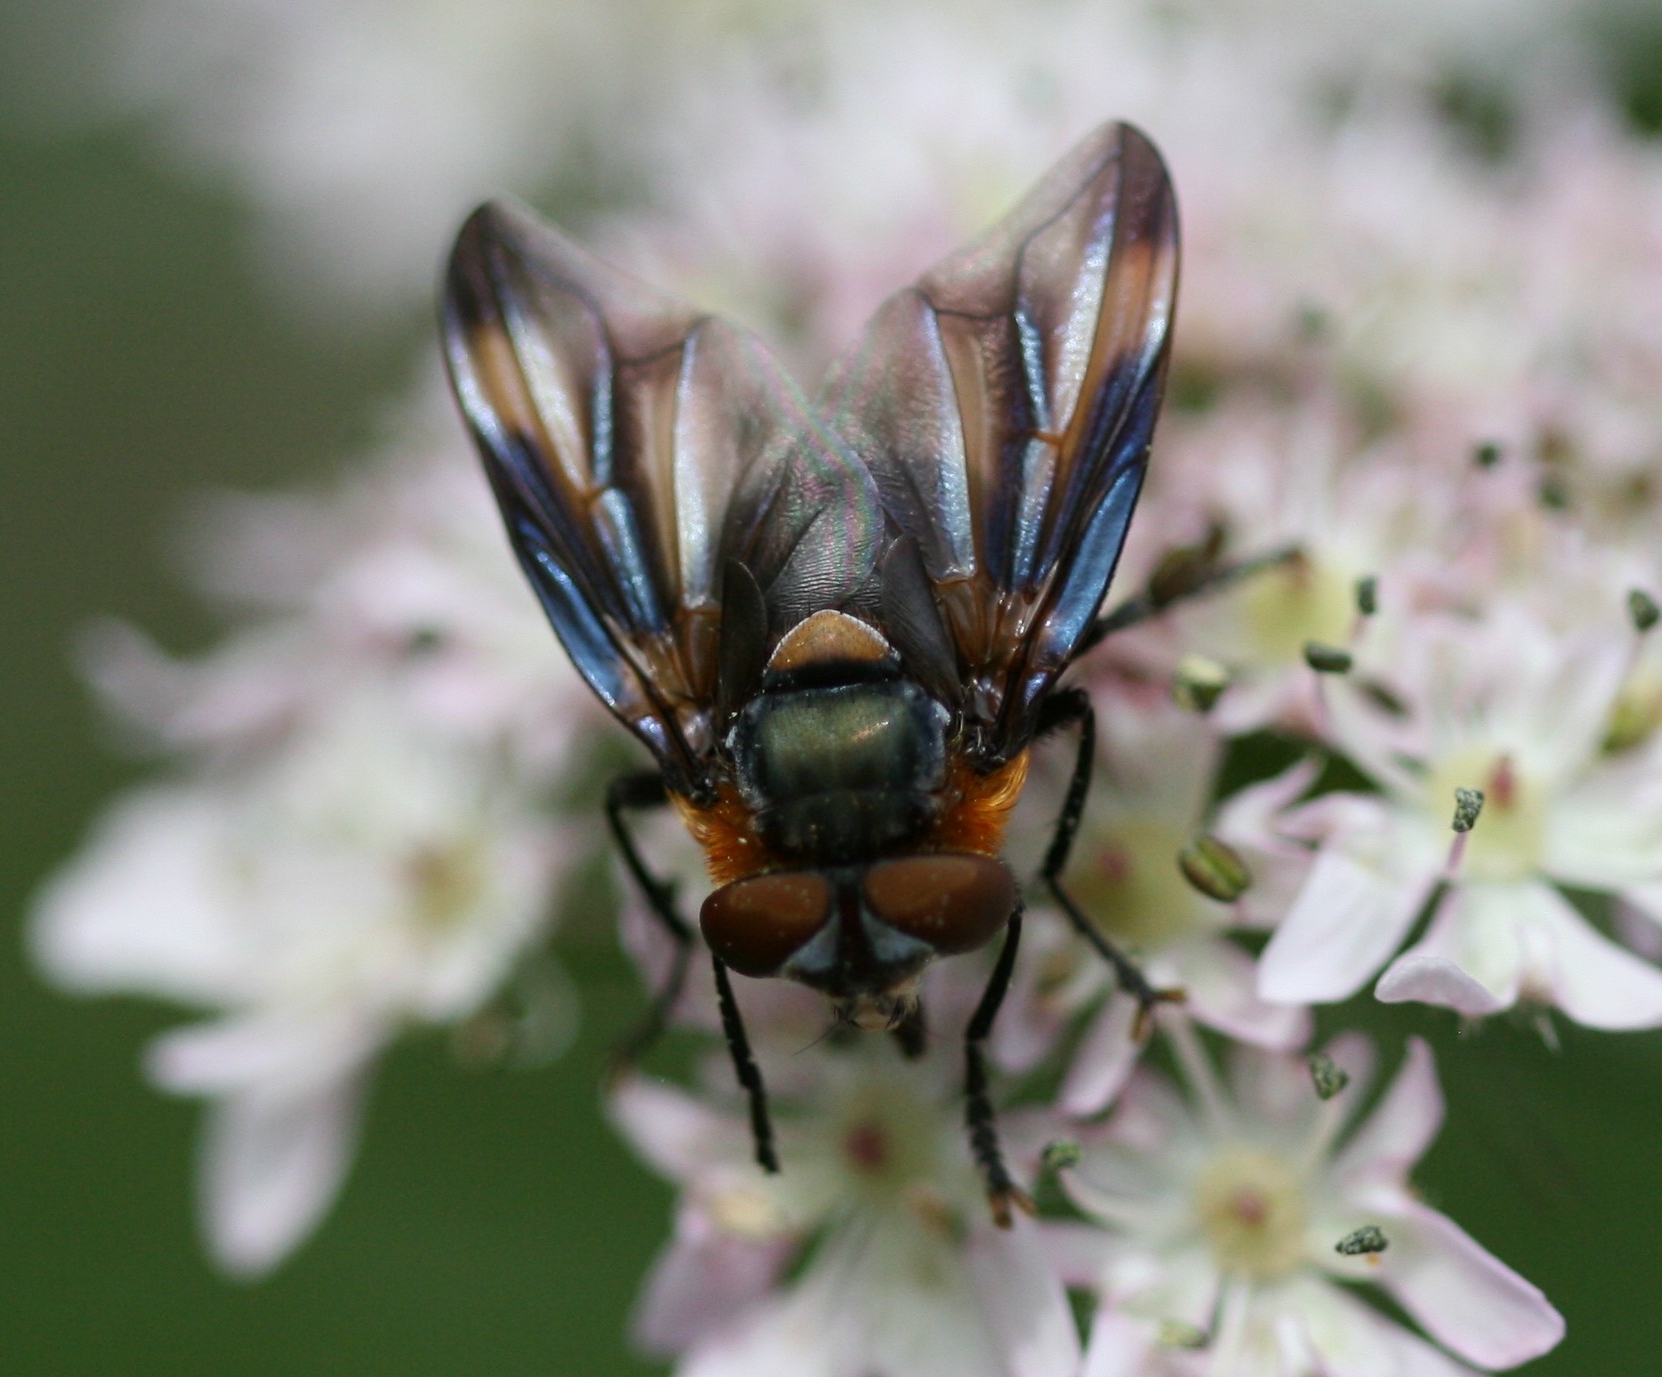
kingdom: Animalia
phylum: Arthropoda
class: Insecta
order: Diptera
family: Tachinidae
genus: Phasia
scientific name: Phasia hemiptera
